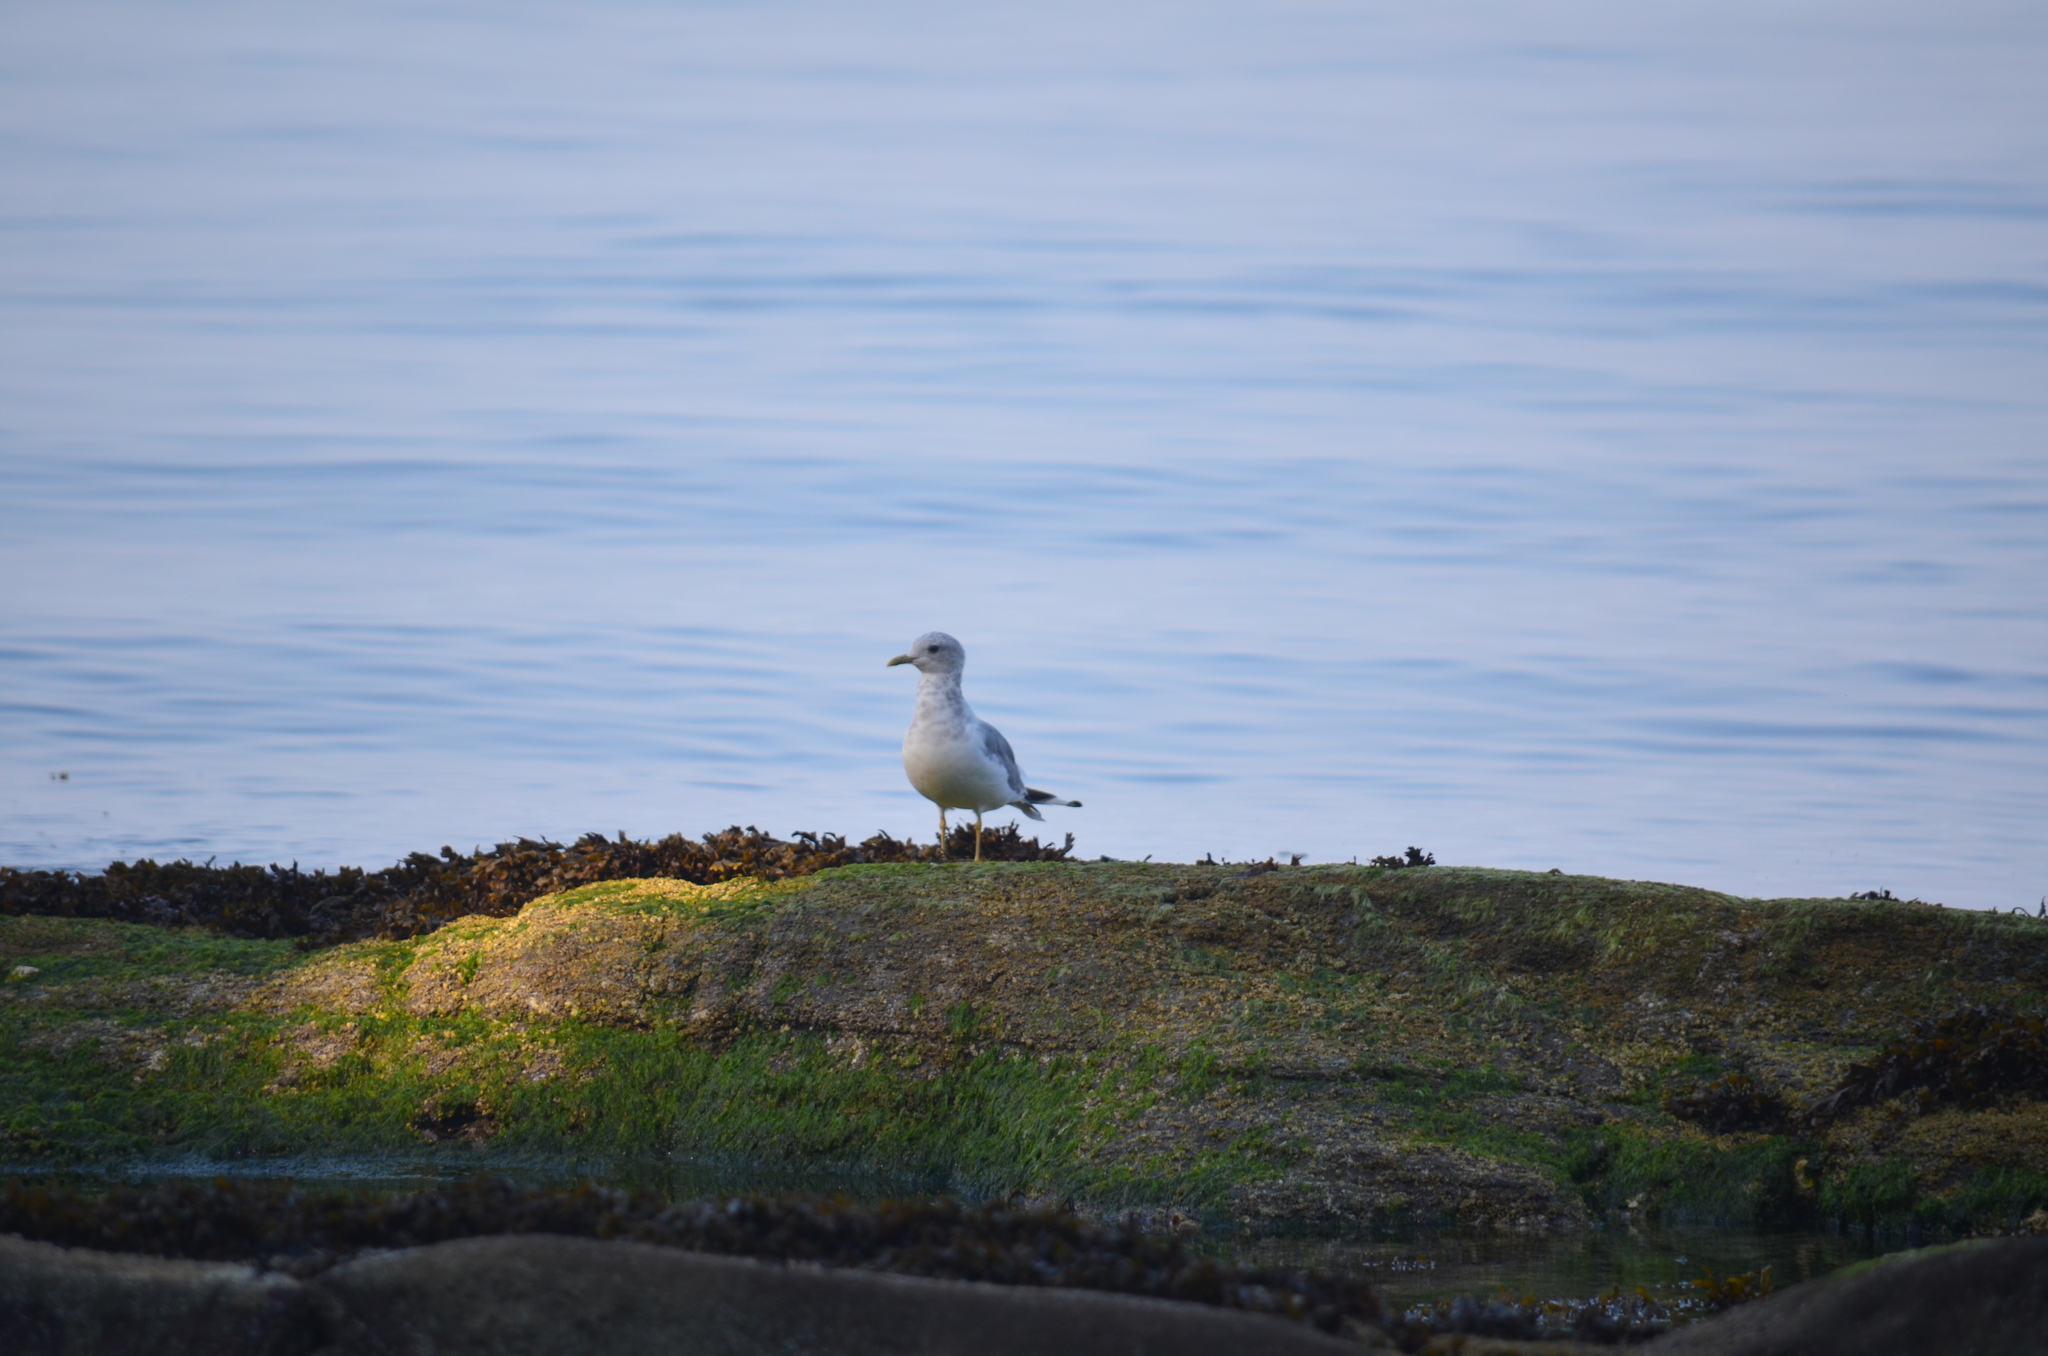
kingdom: Animalia
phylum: Chordata
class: Aves
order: Charadriiformes
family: Laridae
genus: Larus
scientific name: Larus brachyrhynchus
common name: Short-billed gull
